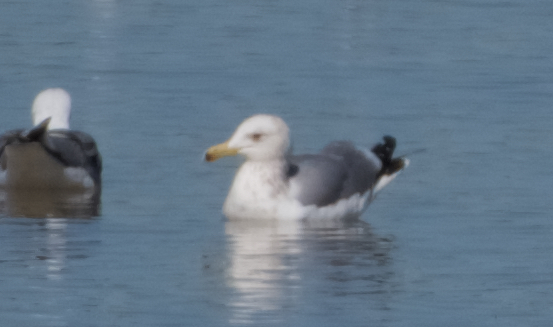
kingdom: Animalia
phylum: Chordata
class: Aves
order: Charadriiformes
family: Laridae
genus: Larus
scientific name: Larus californicus
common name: California gull
